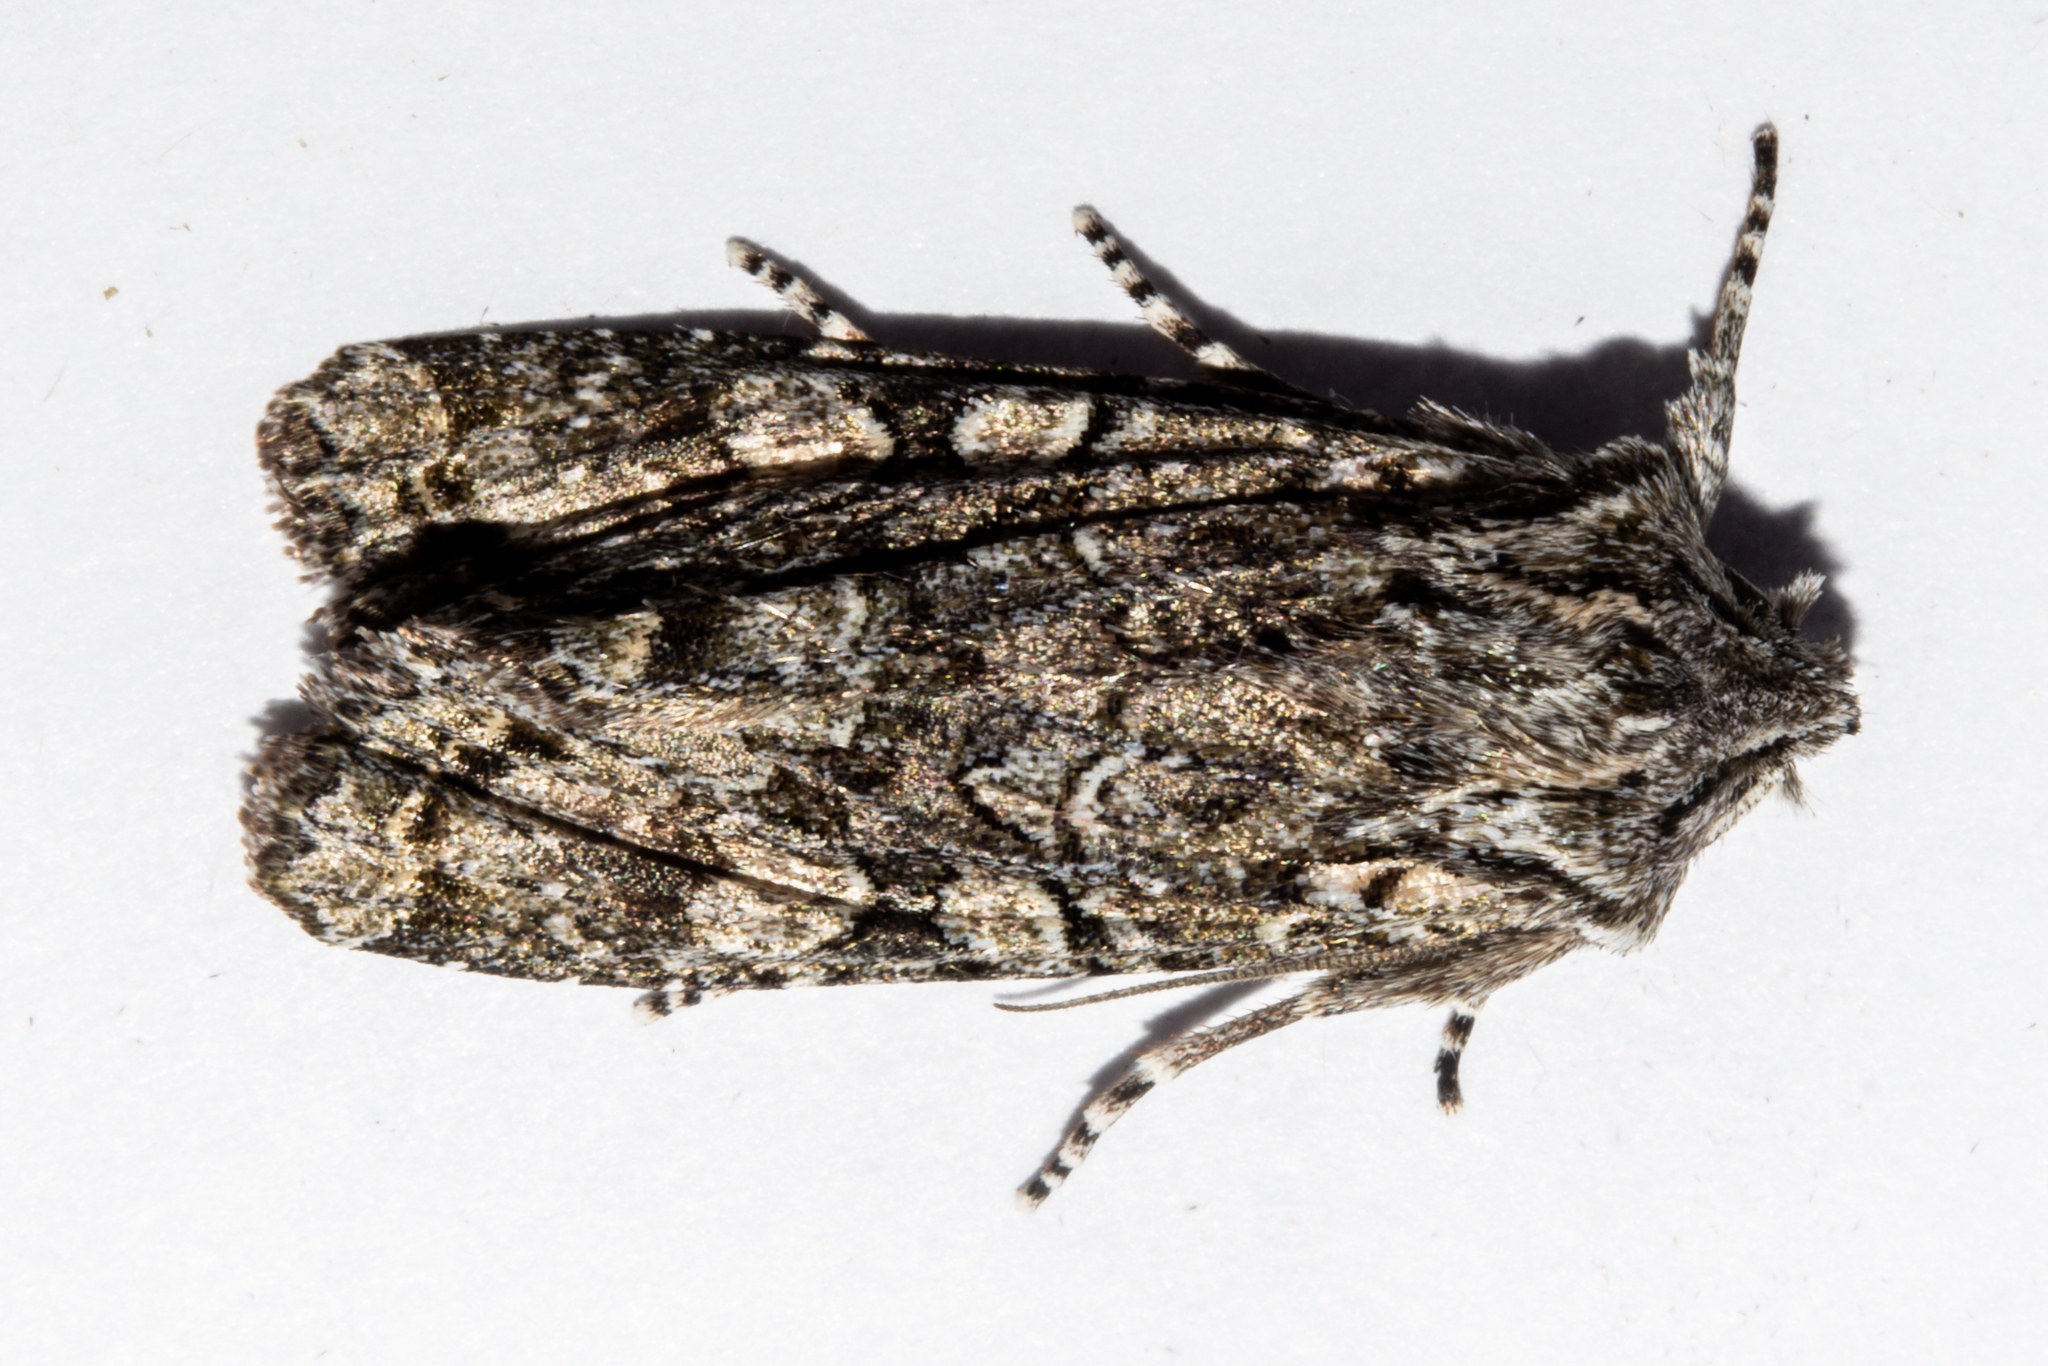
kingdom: Animalia
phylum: Arthropoda
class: Insecta
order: Lepidoptera
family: Noctuidae
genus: Ichneutica
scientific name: Ichneutica mutans
